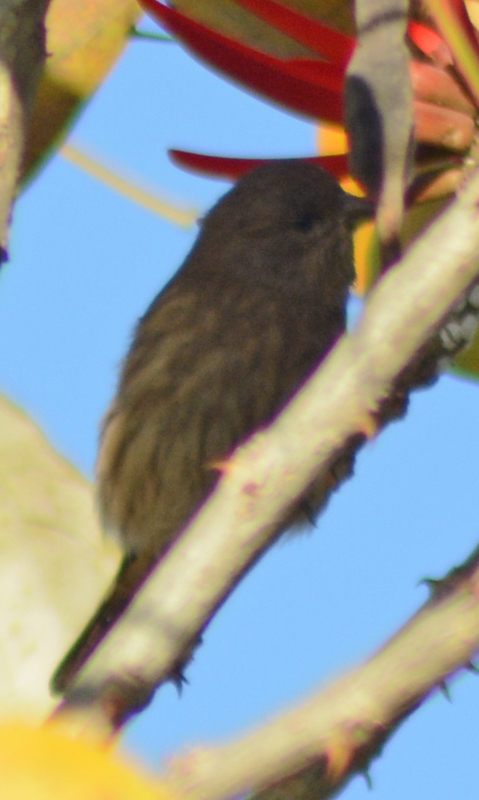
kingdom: Animalia
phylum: Chordata
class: Aves
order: Passeriformes
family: Fringillidae
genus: Haemorhous
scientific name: Haemorhous mexicanus
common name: House finch
